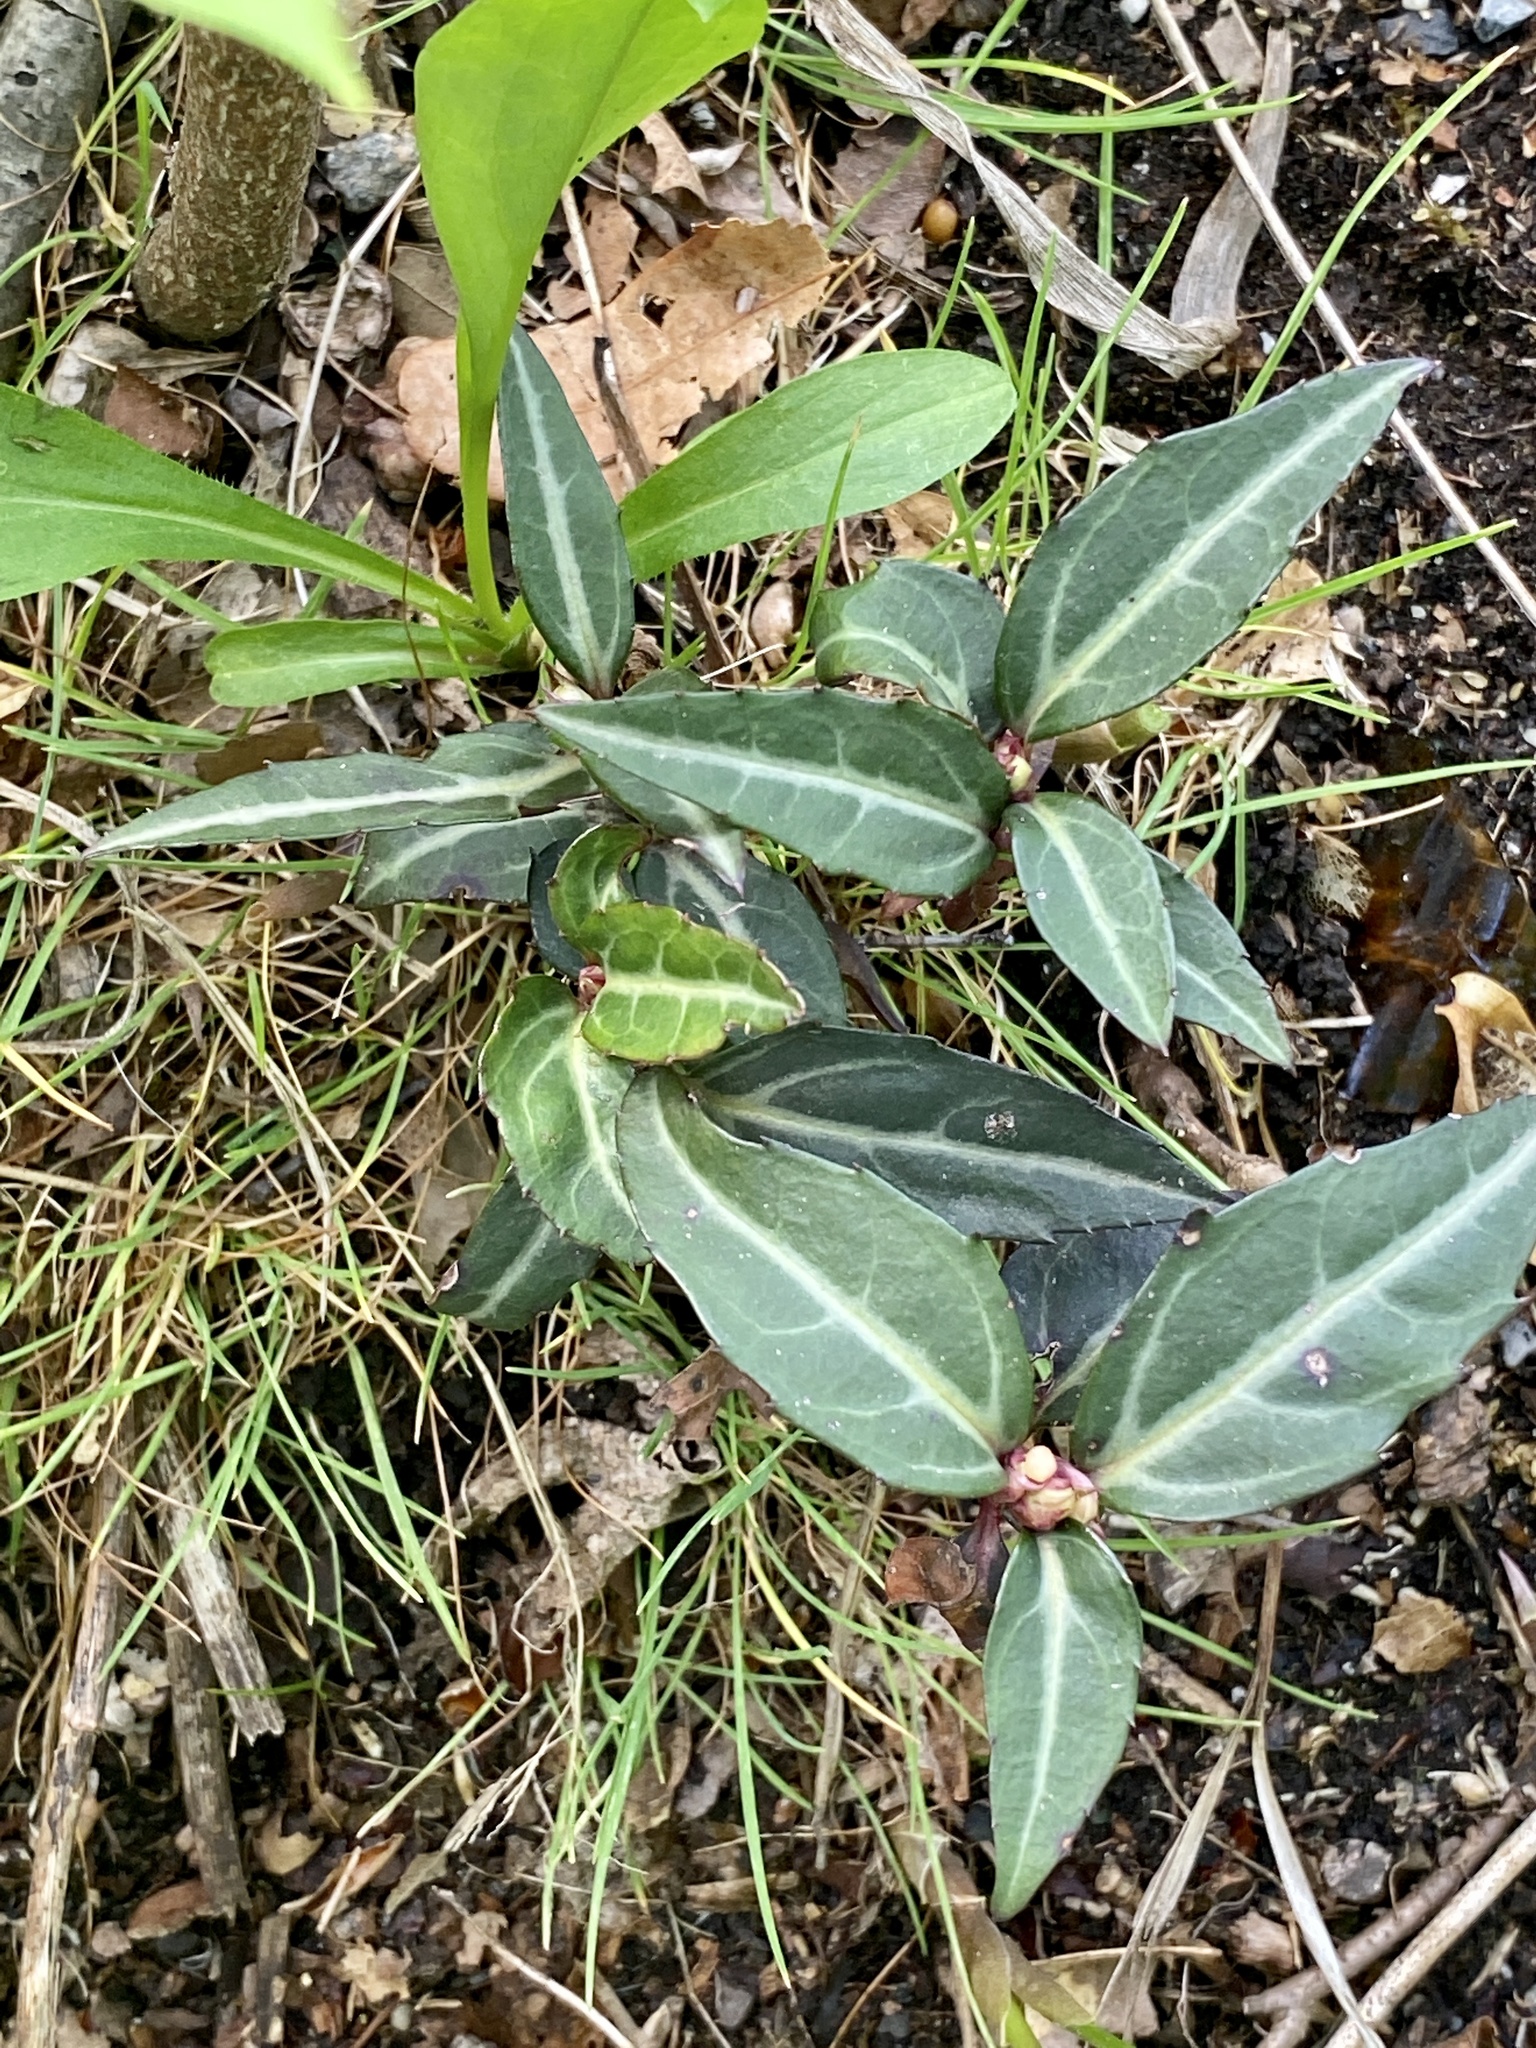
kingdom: Plantae
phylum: Tracheophyta
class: Magnoliopsida
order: Ericales
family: Ericaceae
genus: Chimaphila
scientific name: Chimaphila maculata
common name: Spotted pipsissewa
